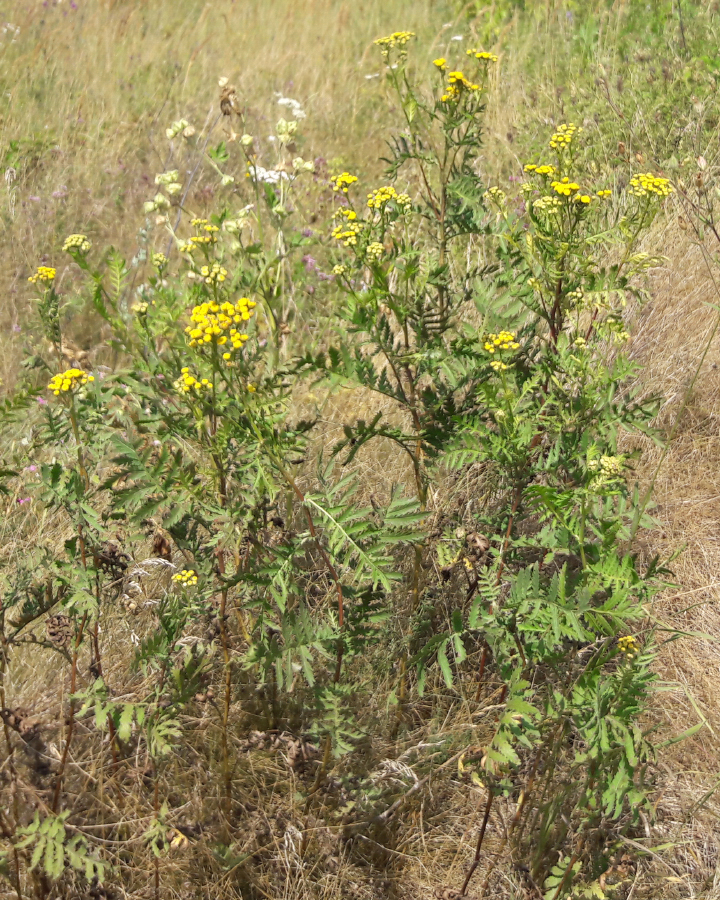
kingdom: Plantae
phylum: Tracheophyta
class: Magnoliopsida
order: Asterales
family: Asteraceae
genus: Tanacetum
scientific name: Tanacetum vulgare
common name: Common tansy
